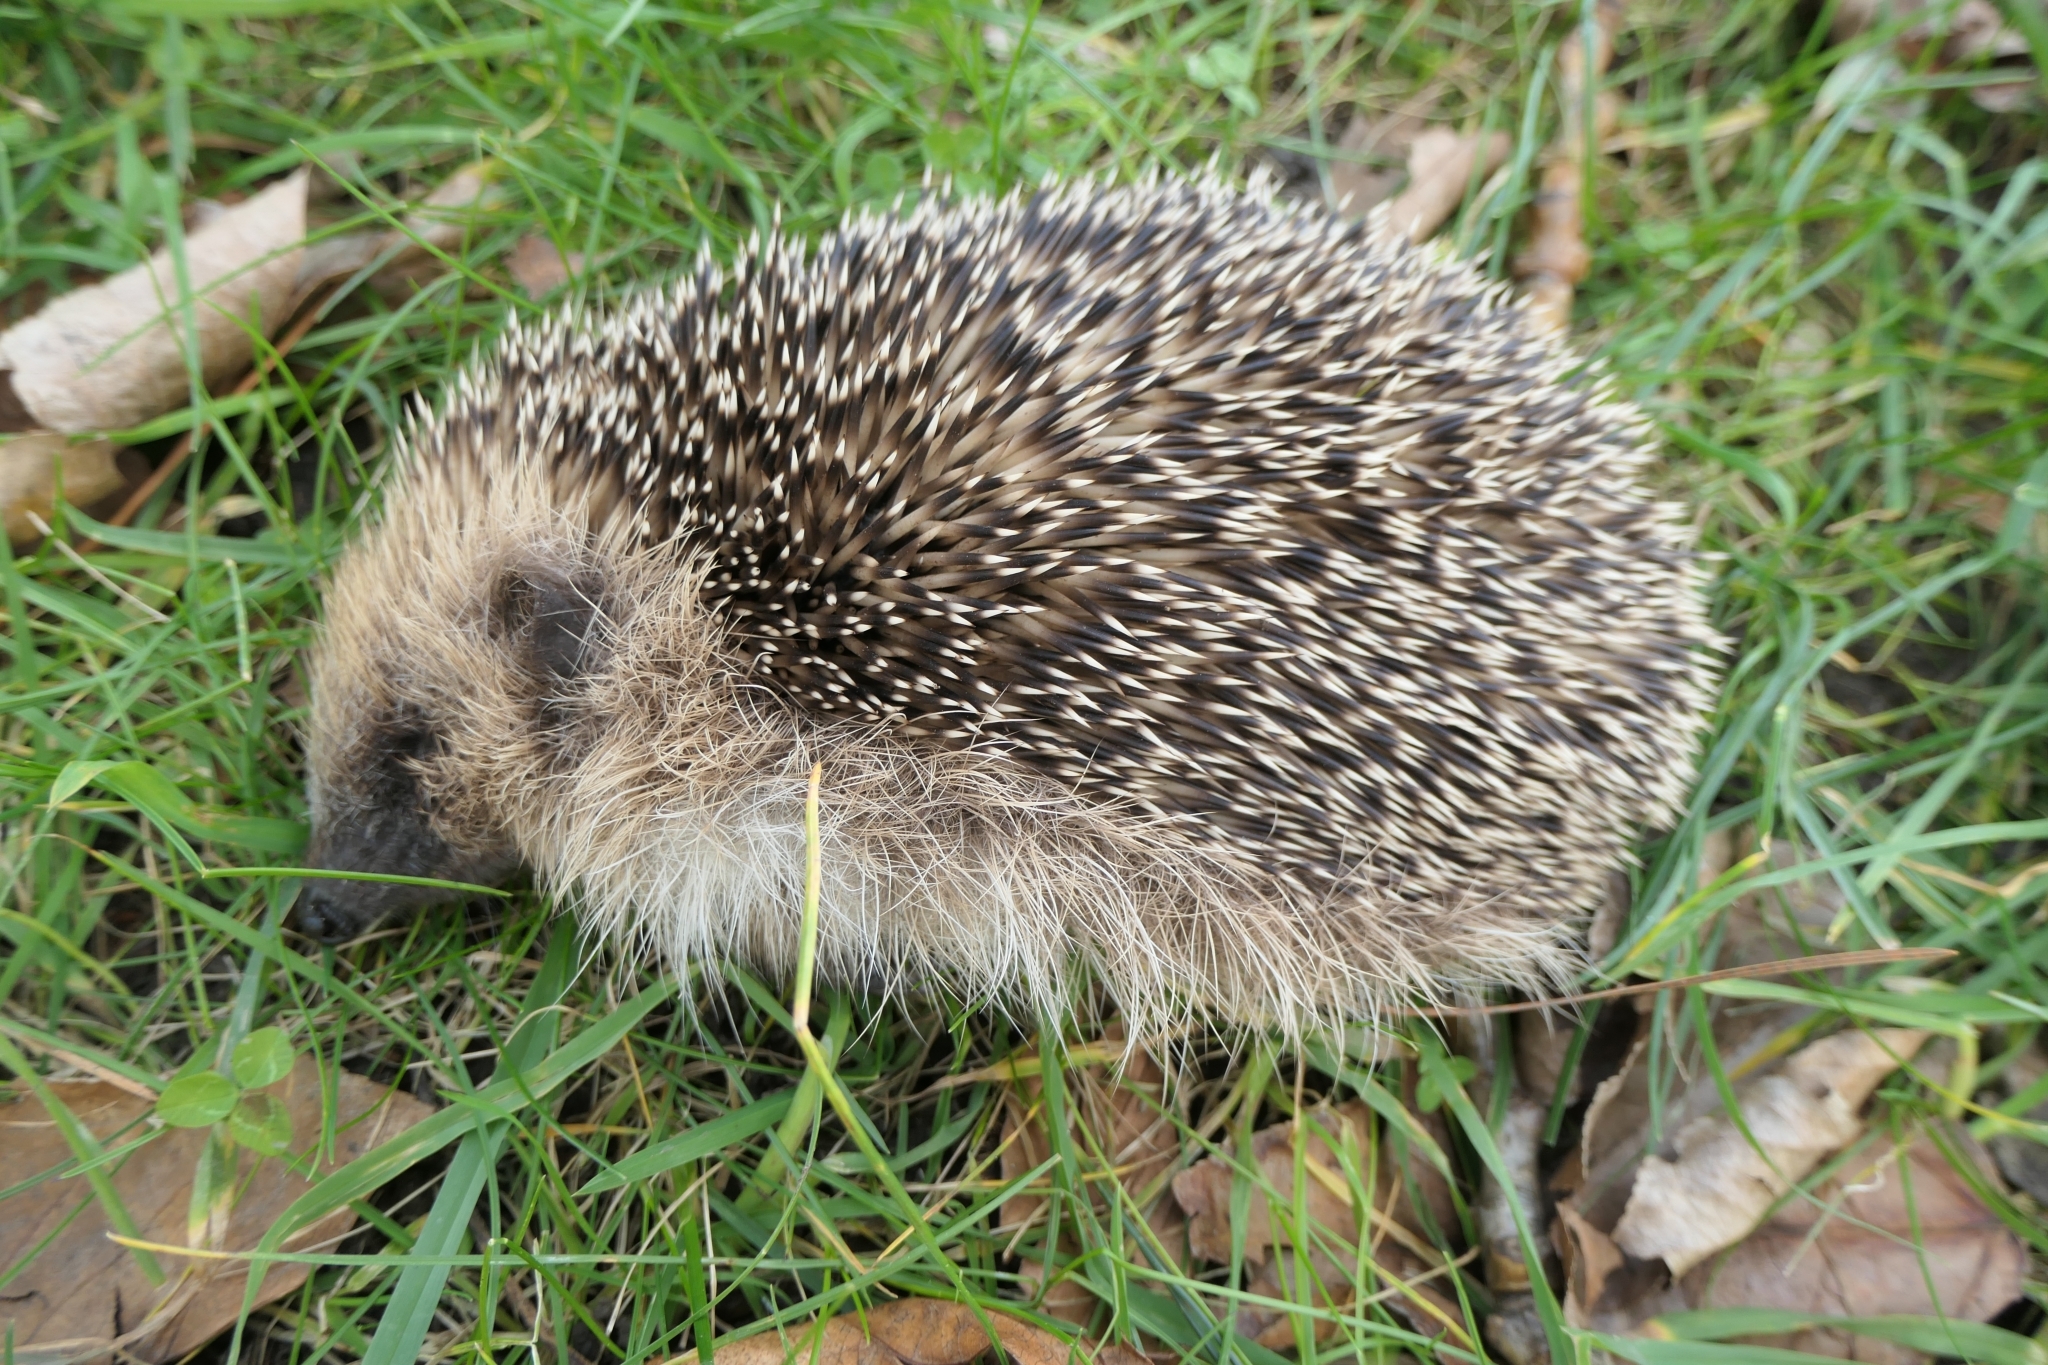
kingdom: Animalia
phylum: Chordata
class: Mammalia
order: Erinaceomorpha
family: Erinaceidae
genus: Erinaceus
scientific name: Erinaceus europaeus
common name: West european hedgehog
